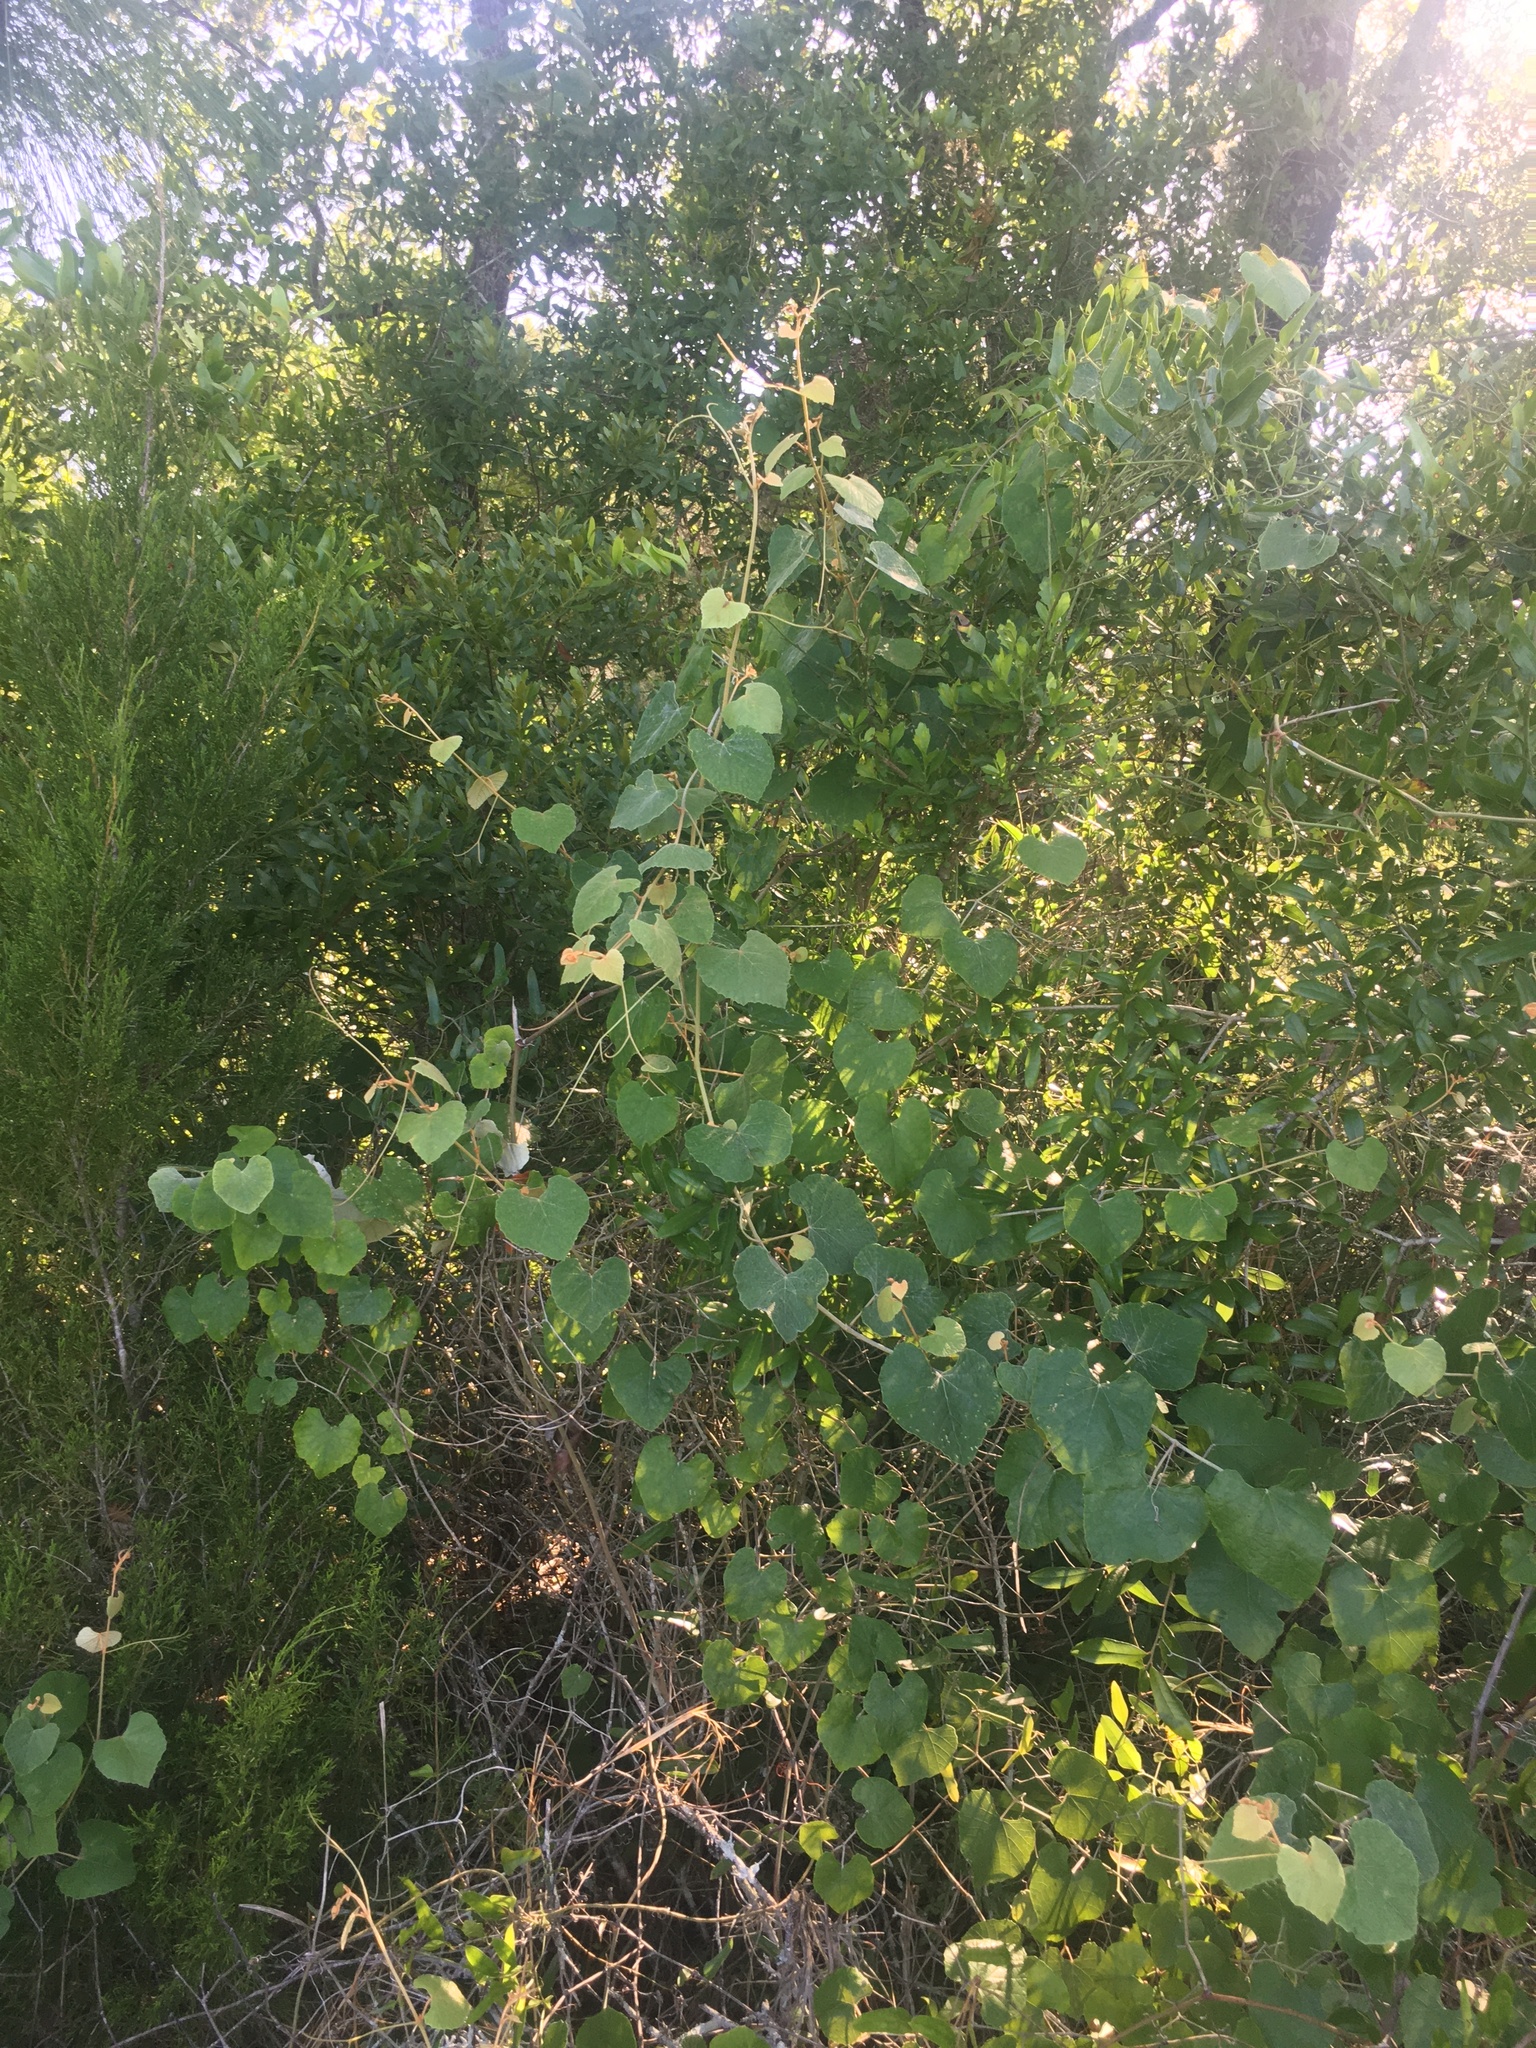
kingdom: Plantae
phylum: Tracheophyta
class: Magnoliopsida
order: Vitales
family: Vitaceae
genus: Vitis
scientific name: Vitis shuttleworthii
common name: Caloosa grape
